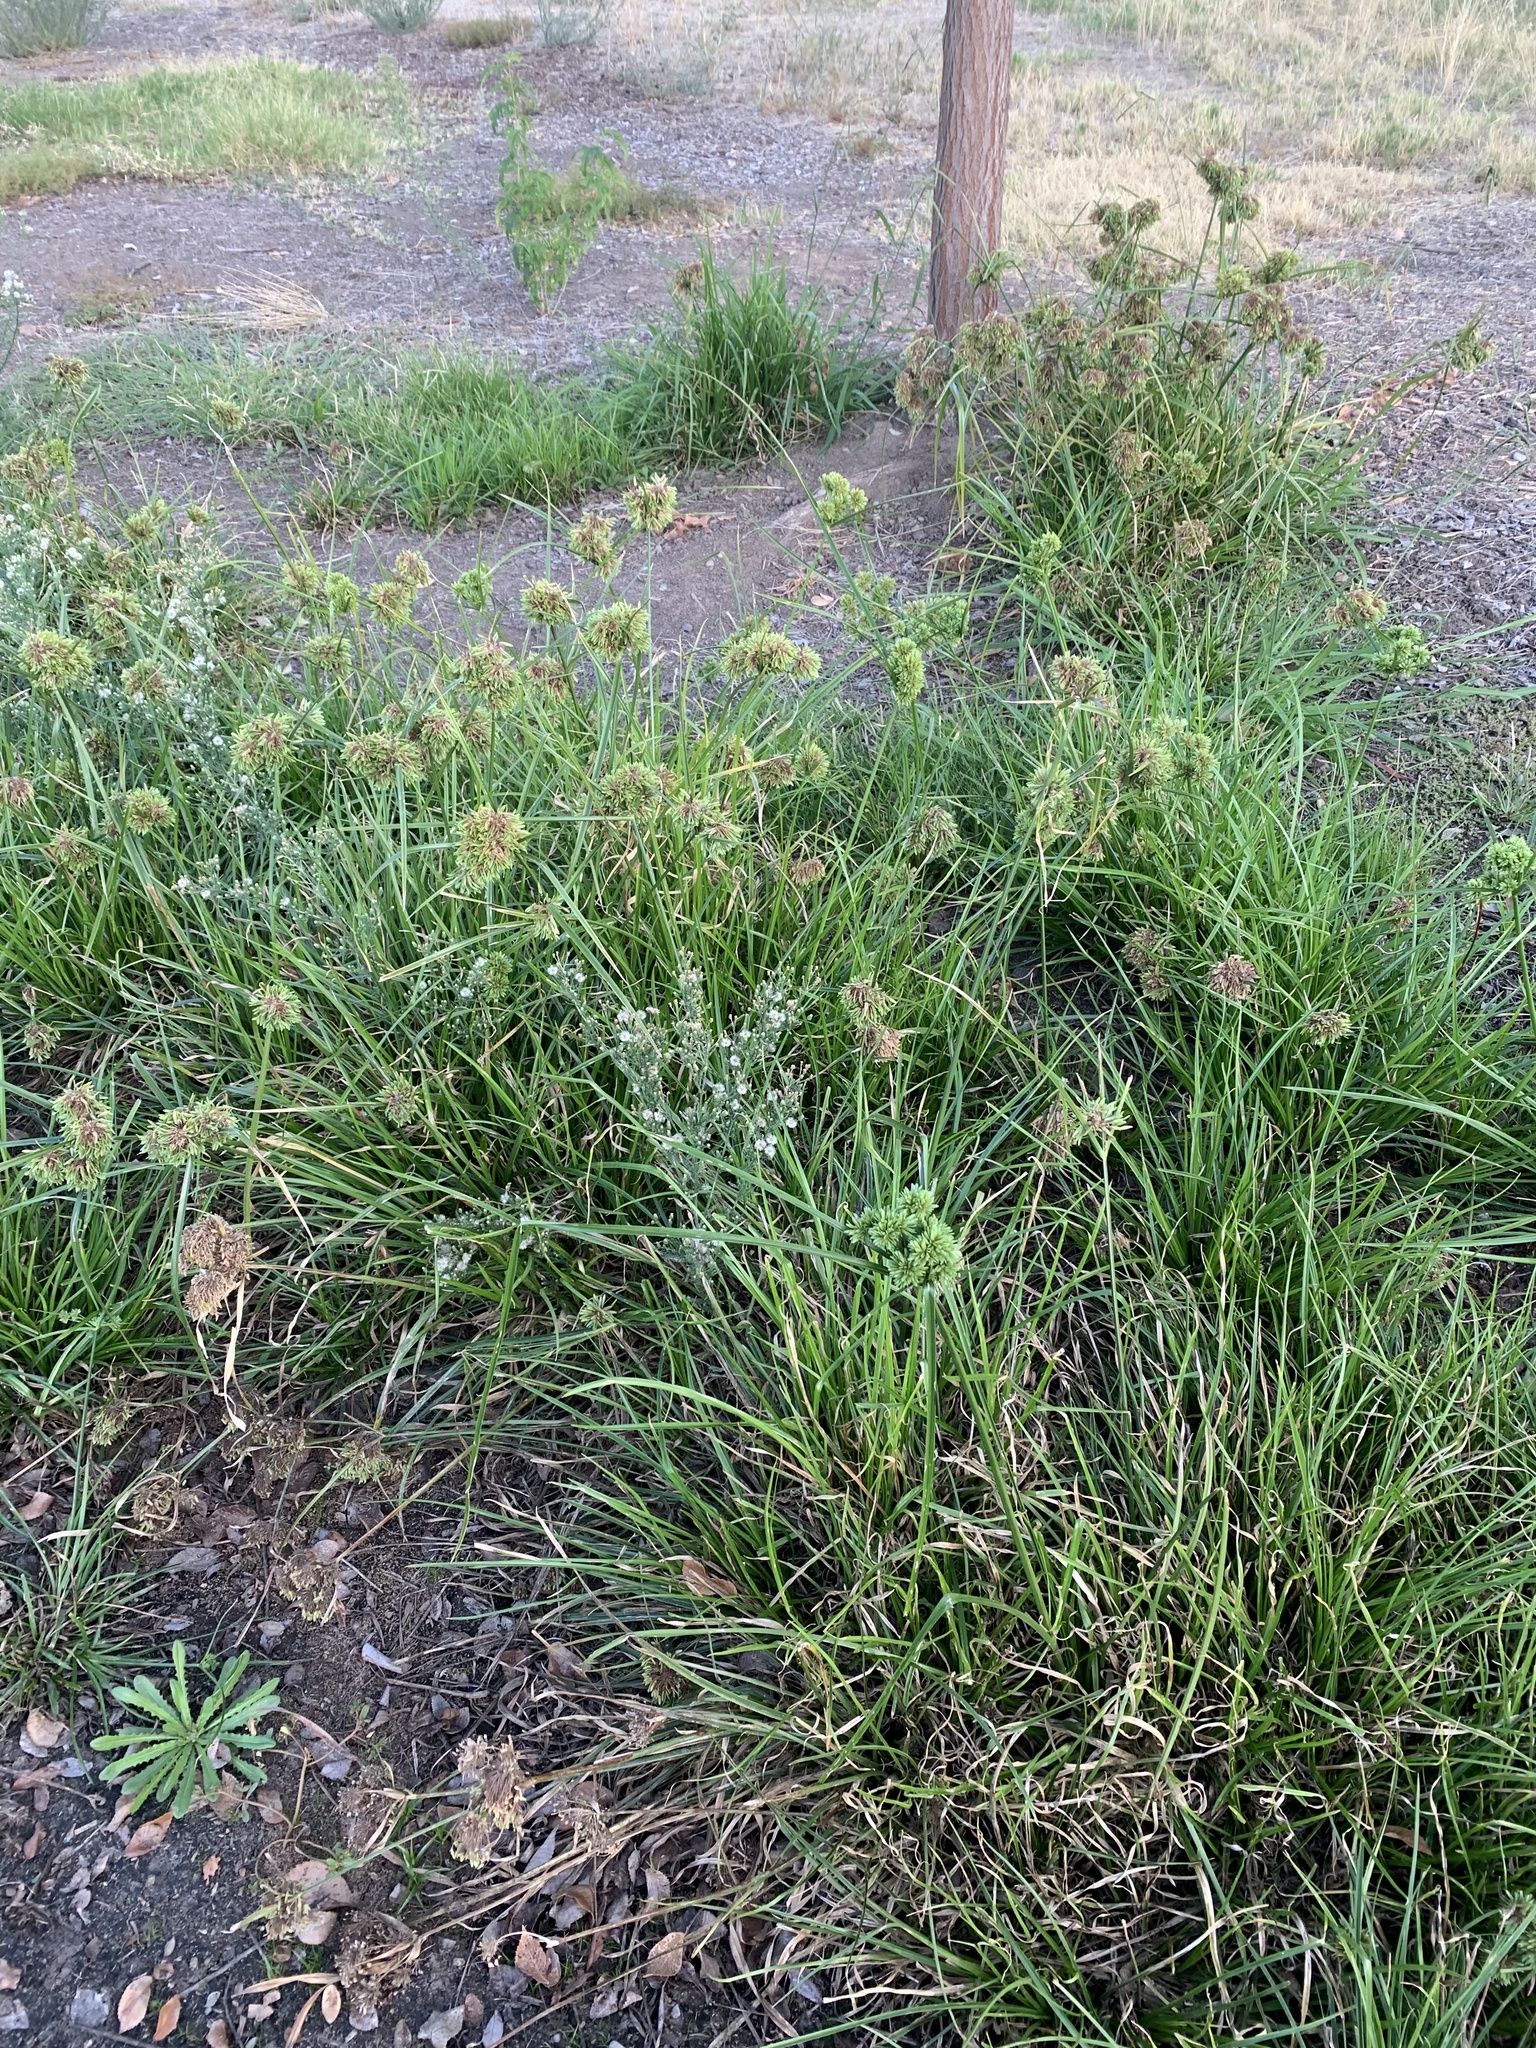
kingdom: Plantae
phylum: Tracheophyta
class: Liliopsida
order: Poales
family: Cyperaceae
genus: Cyperus
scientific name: Cyperus eragrostis
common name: Tall flatsedge
